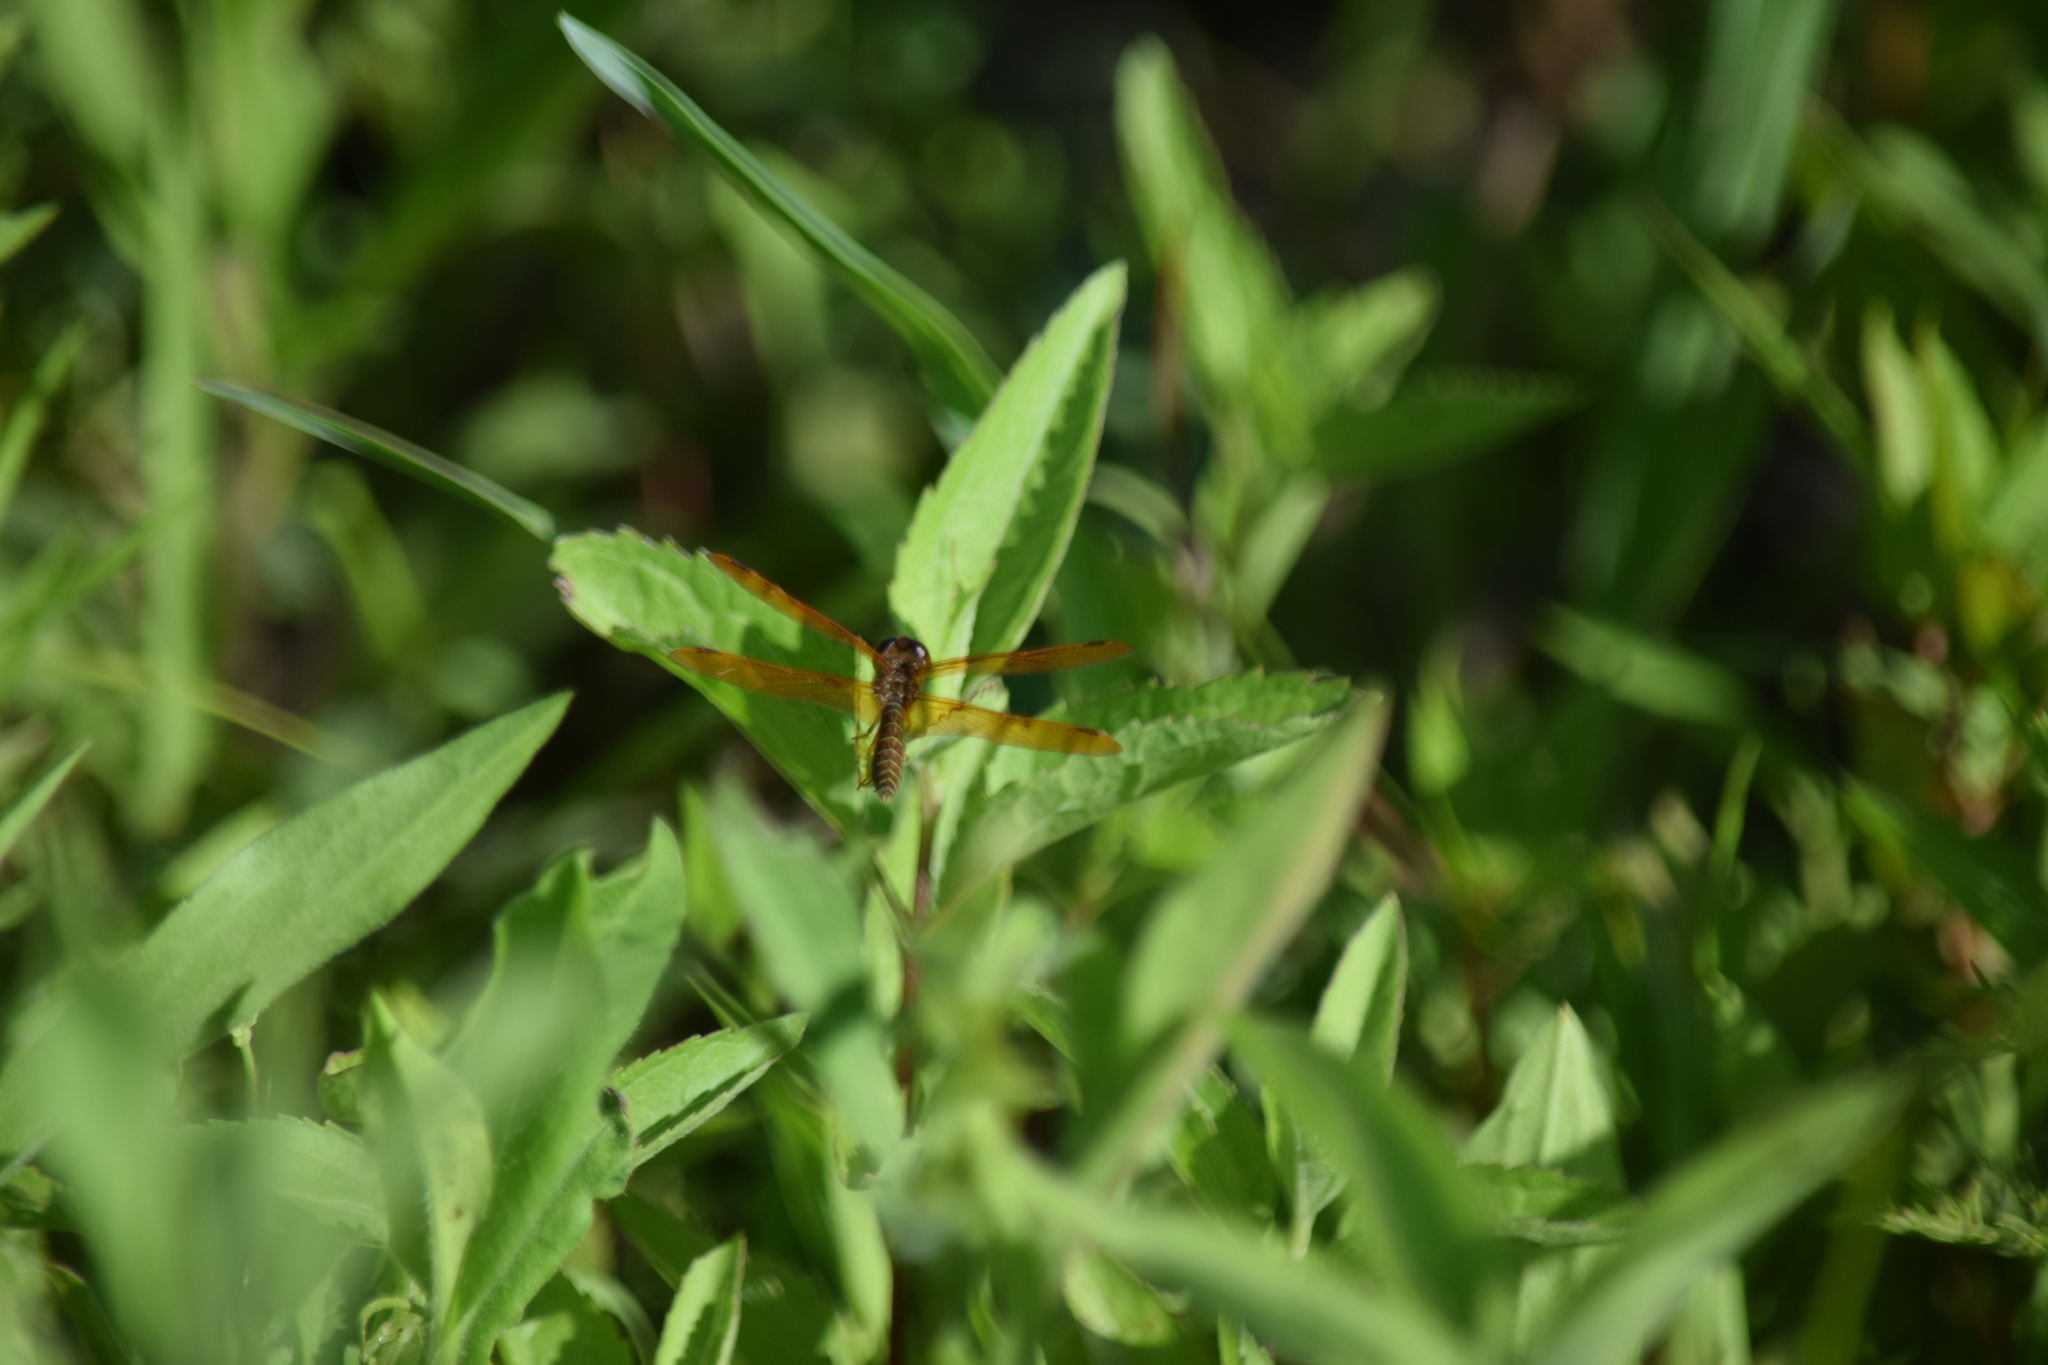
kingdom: Animalia
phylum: Arthropoda
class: Insecta
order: Odonata
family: Libellulidae
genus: Perithemis
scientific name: Perithemis tenera
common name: Eastern amberwing
